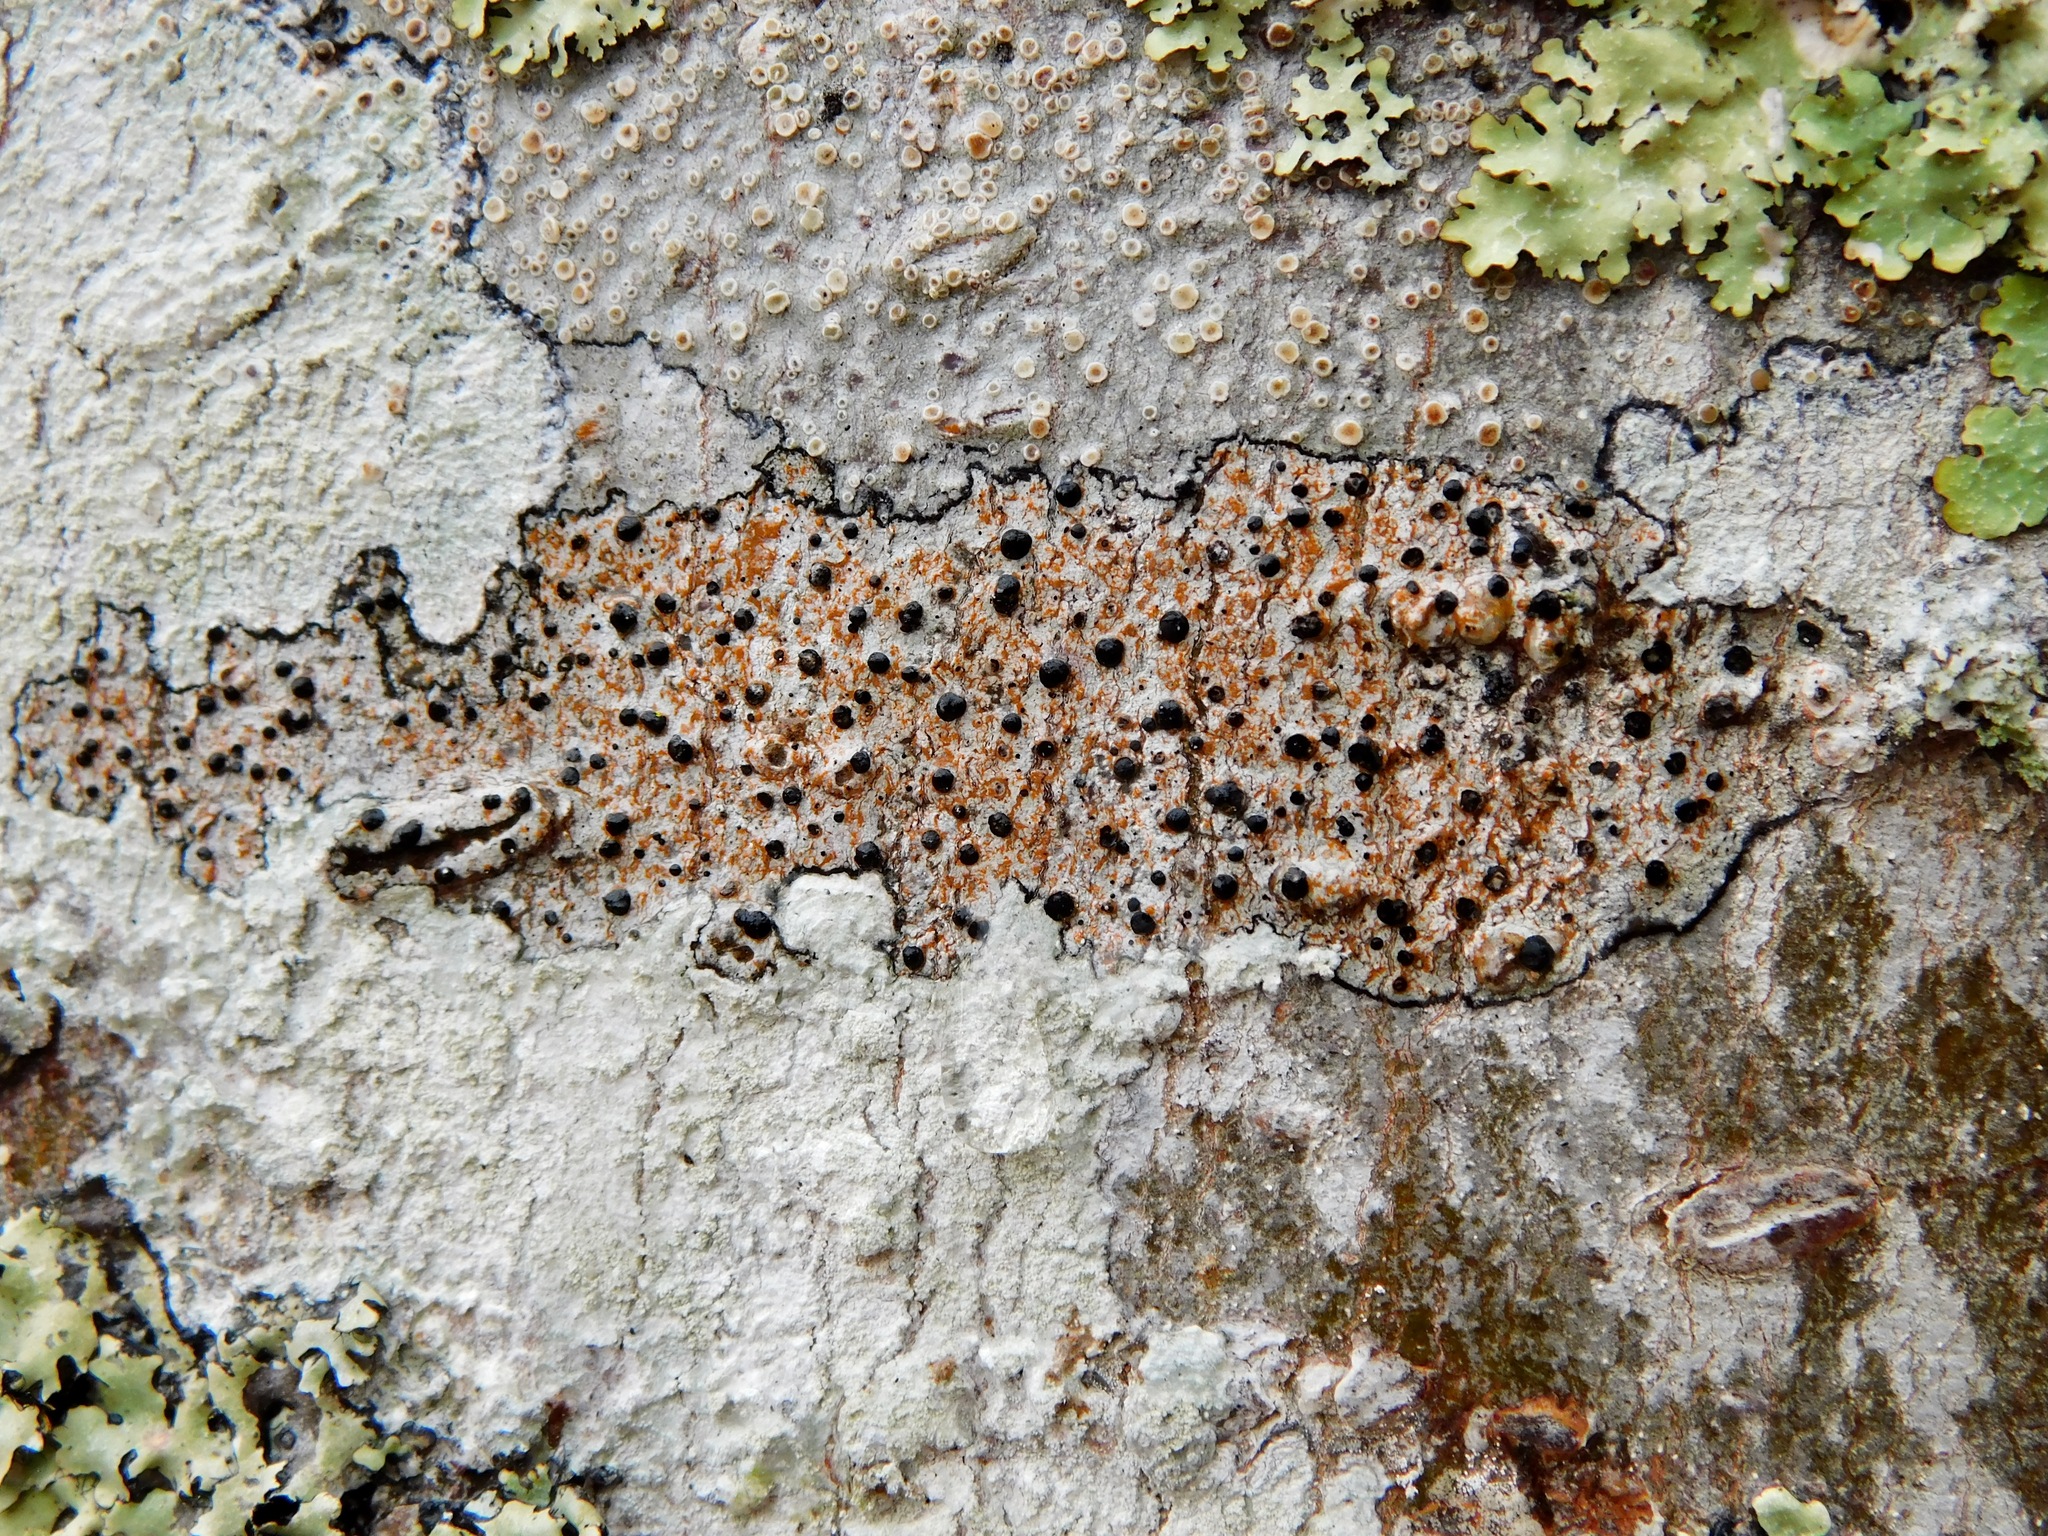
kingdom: Fungi
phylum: Ascomycota
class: Lecanoromycetes
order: Caliciales
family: Caliciaceae
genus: Buellia
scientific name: Buellia erubescens
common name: Common button lichen
